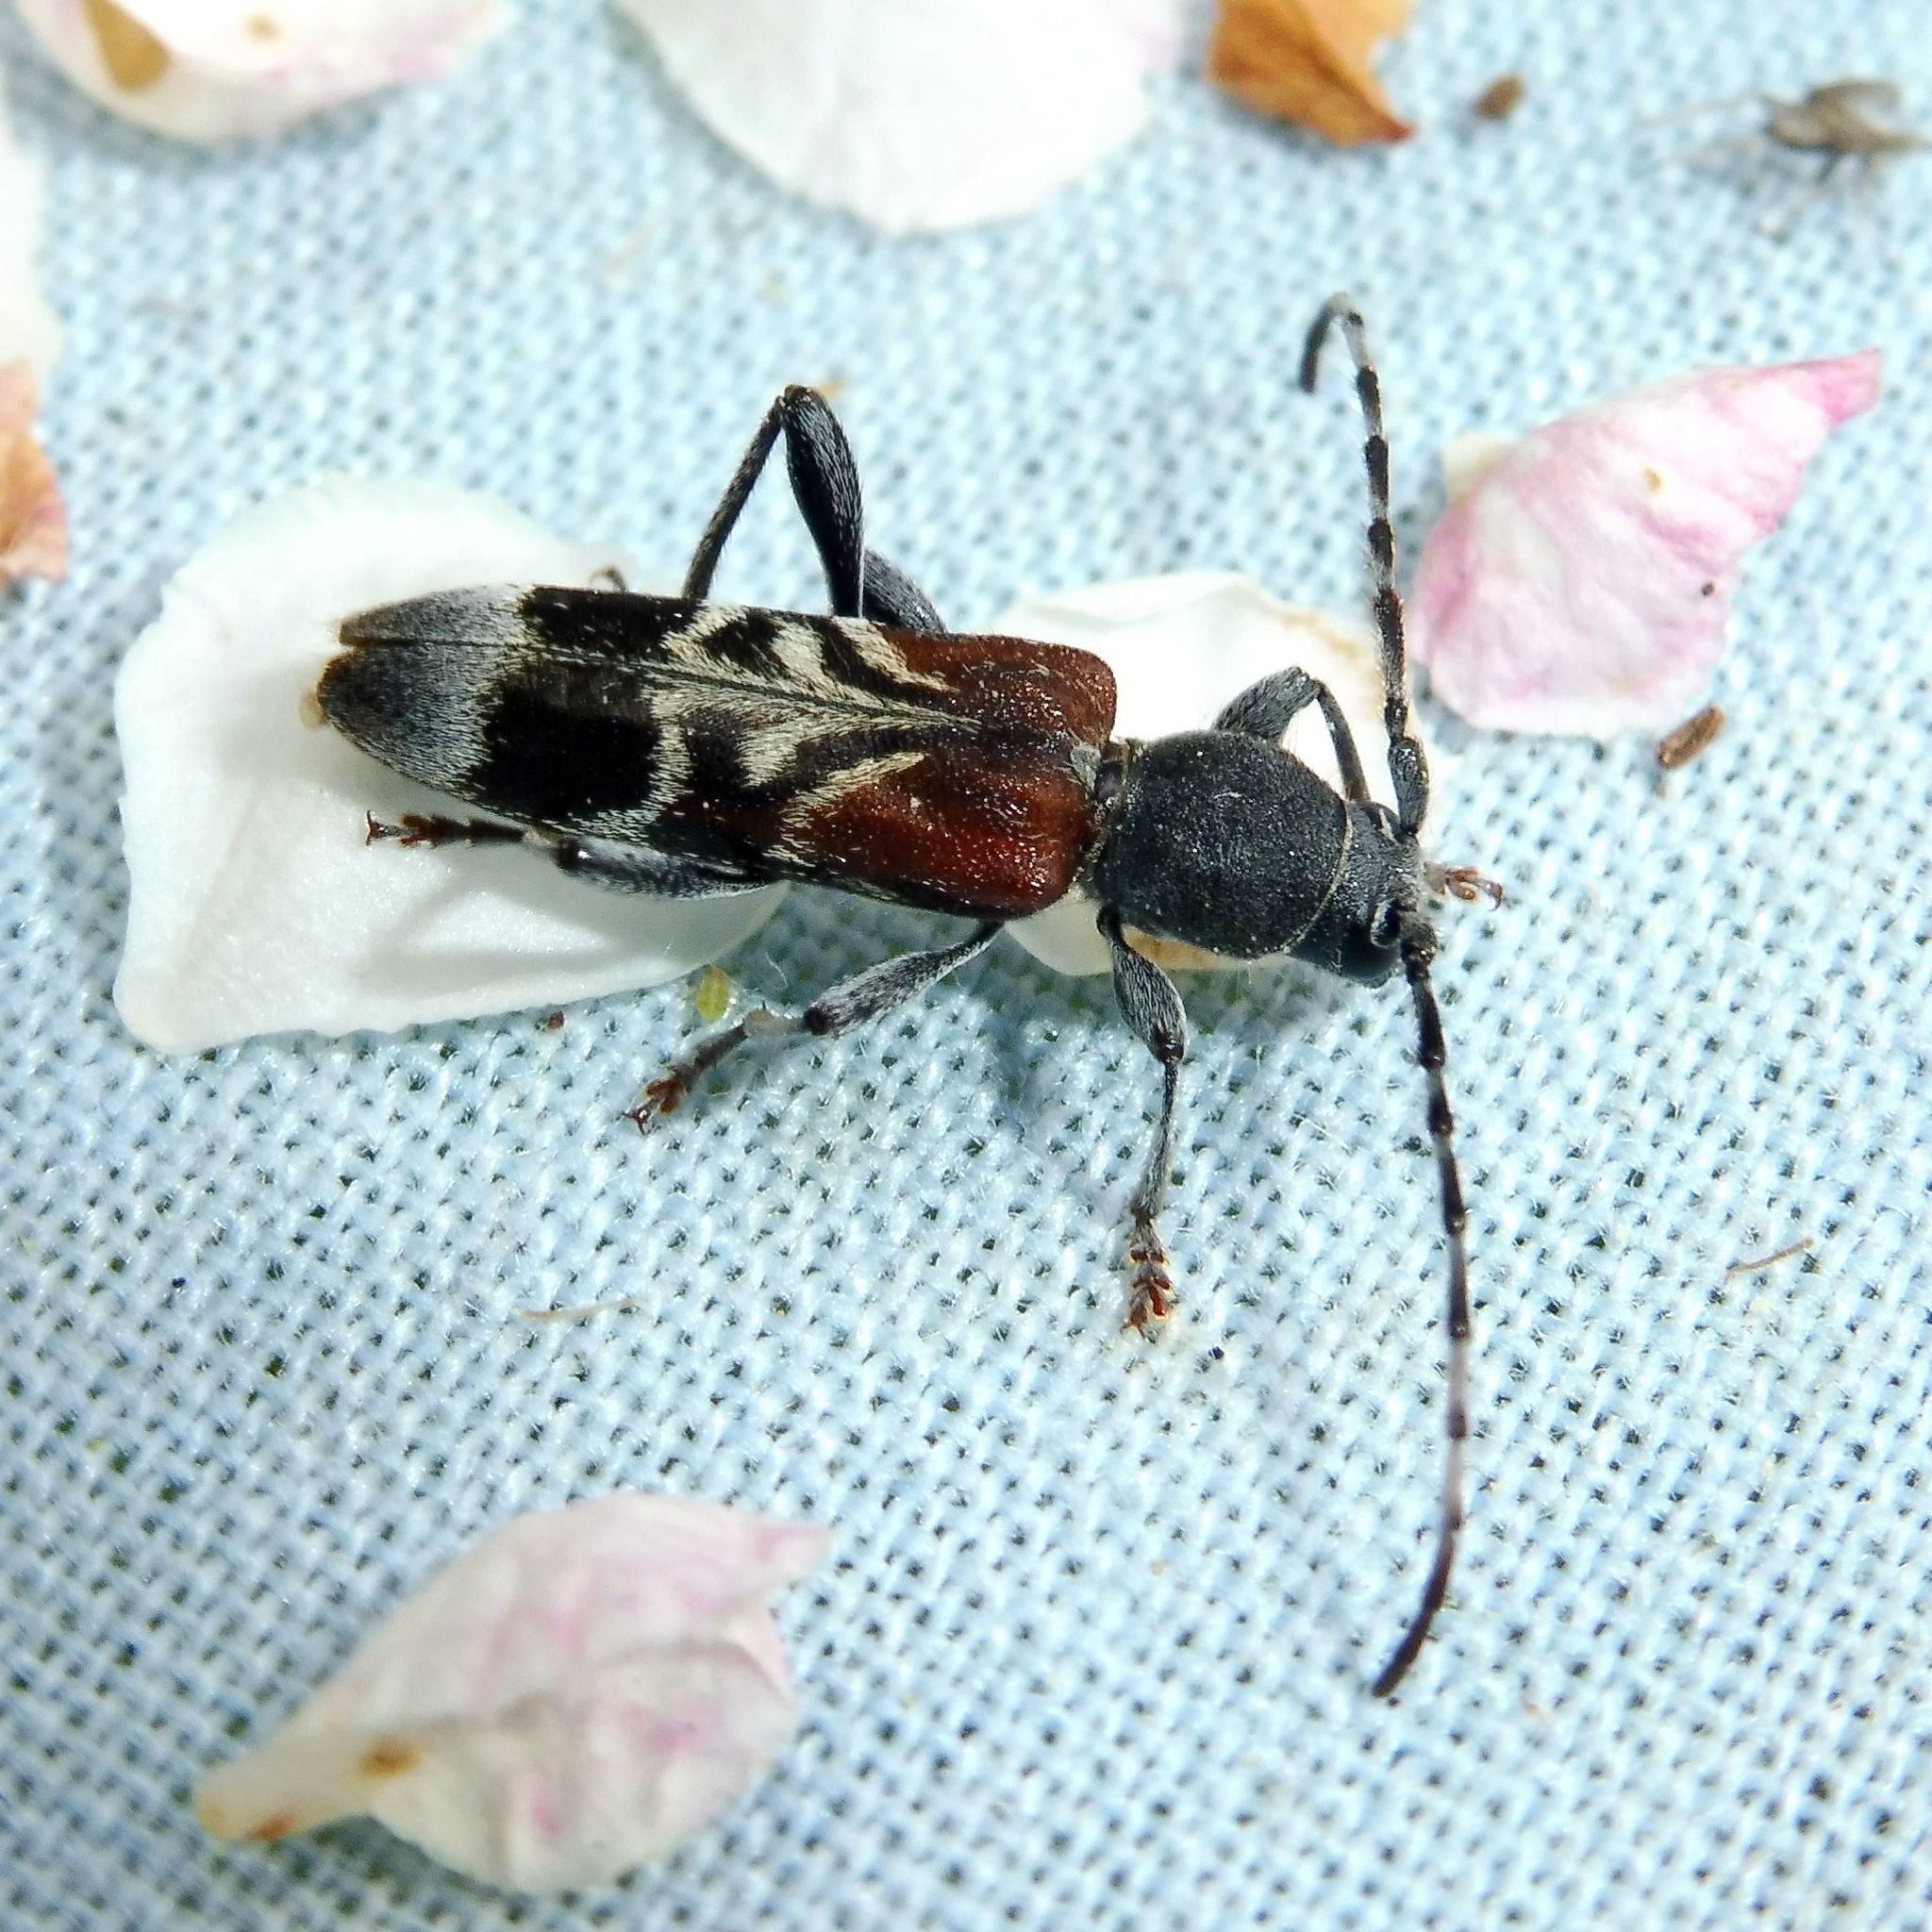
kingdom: Animalia
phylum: Arthropoda
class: Insecta
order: Coleoptera
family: Cerambycidae
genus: Anaglyptus
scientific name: Anaglyptus mysticus
